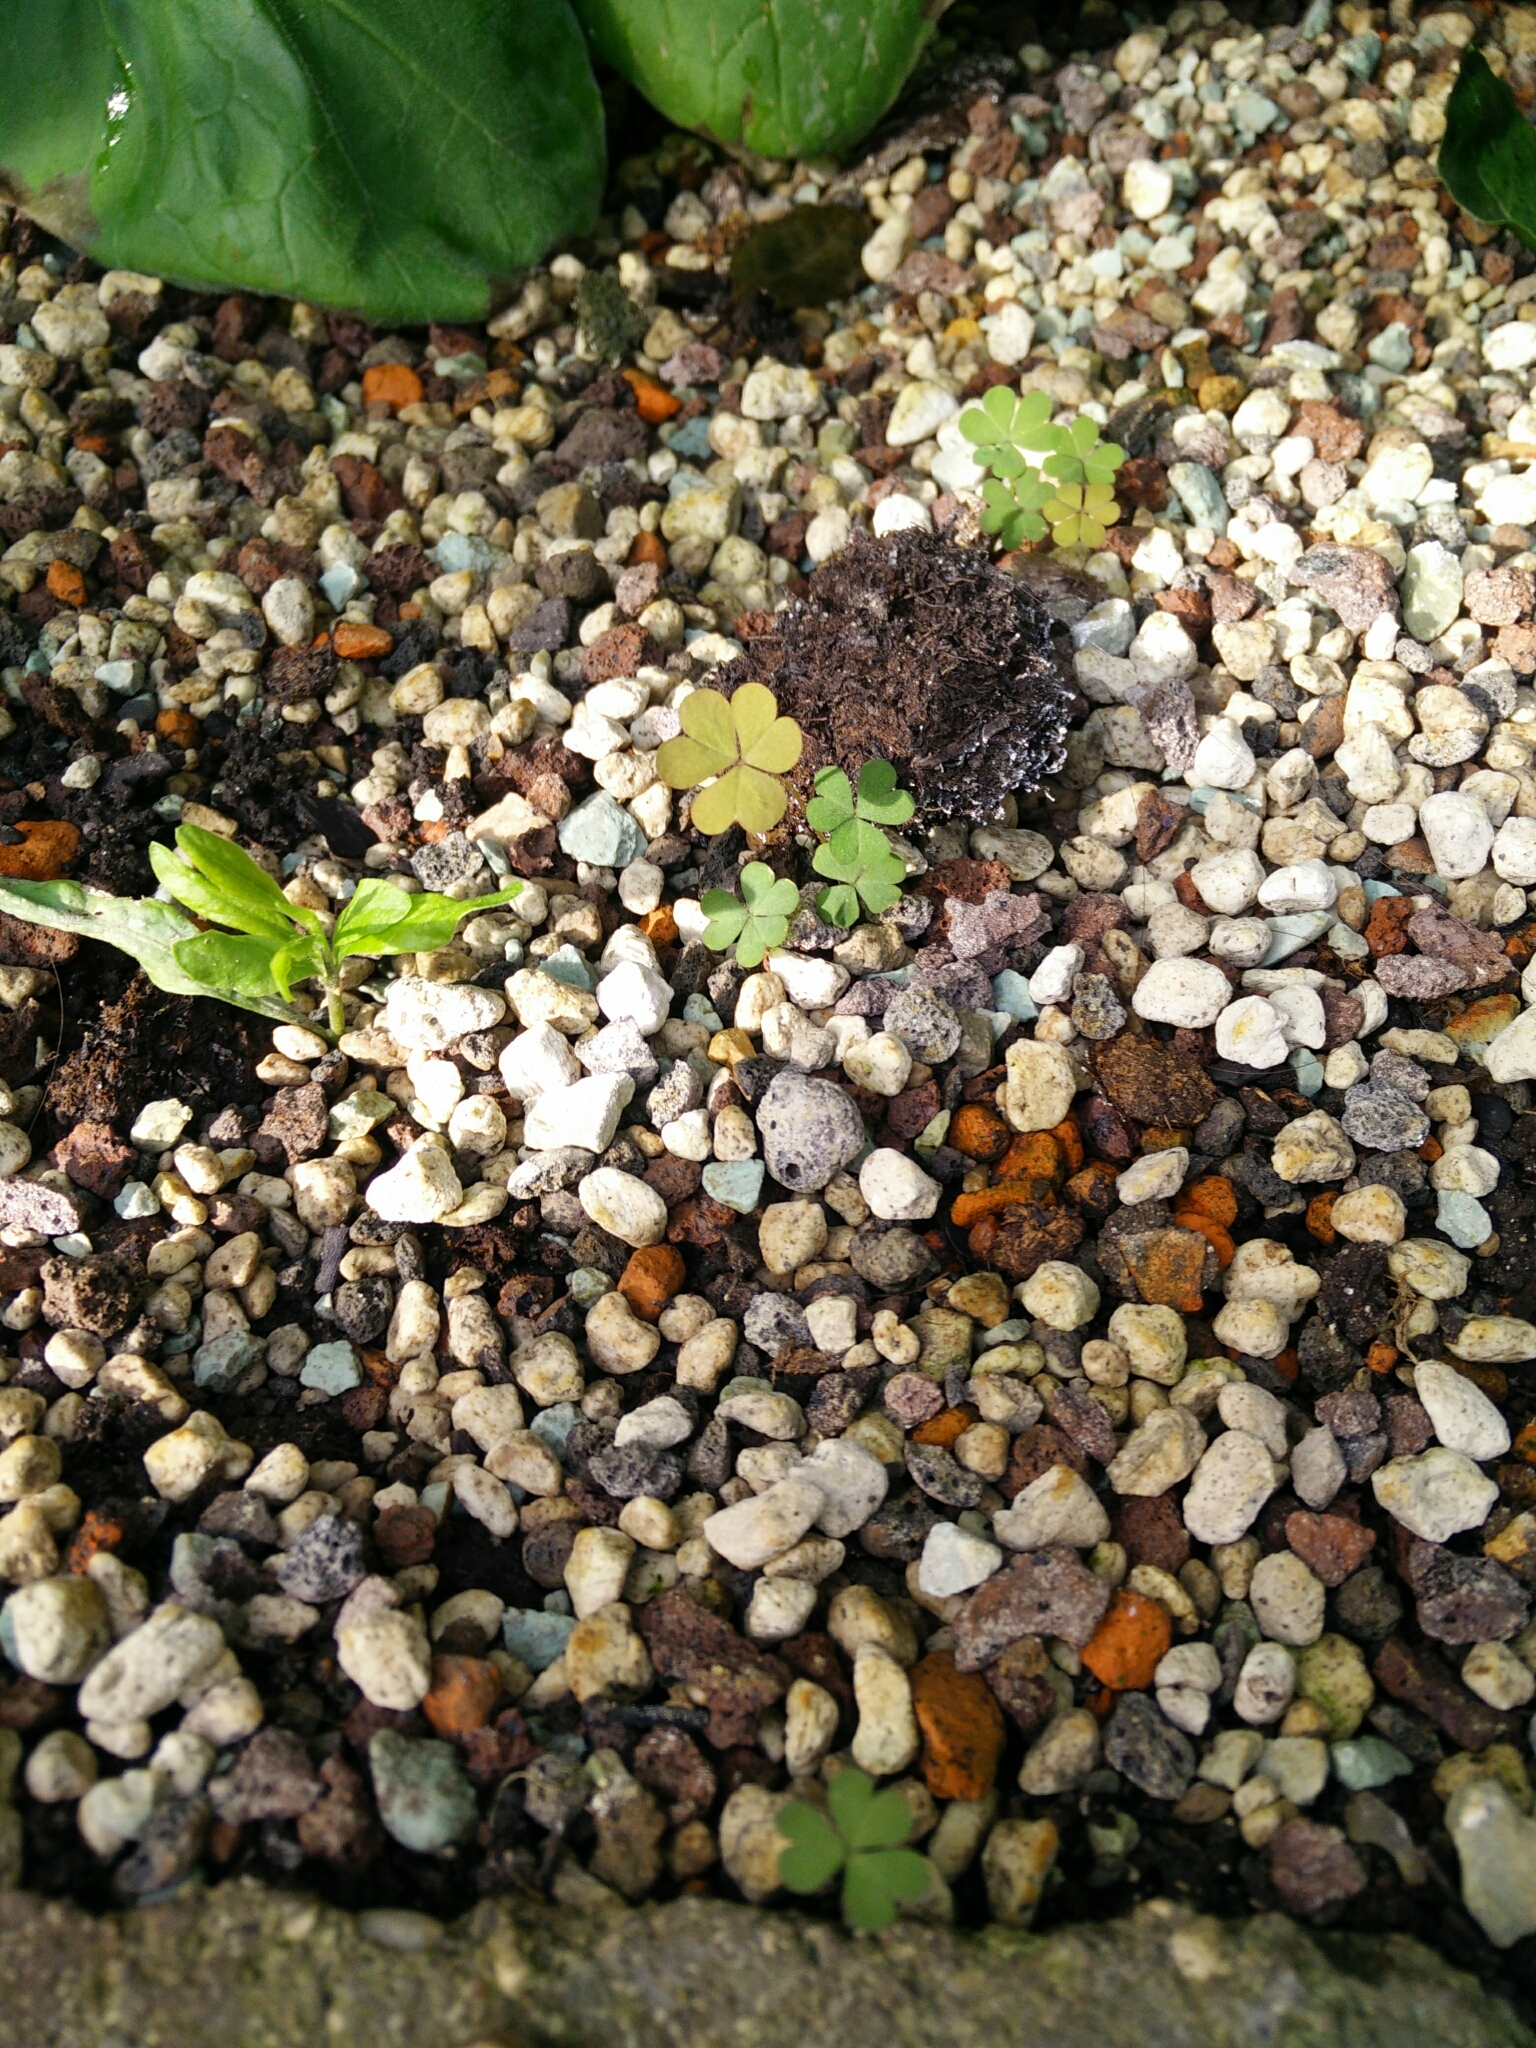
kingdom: Plantae
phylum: Tracheophyta
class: Magnoliopsida
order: Oxalidales
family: Oxalidaceae
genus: Oxalis
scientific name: Oxalis corniculata
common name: Procumbent yellow-sorrel
